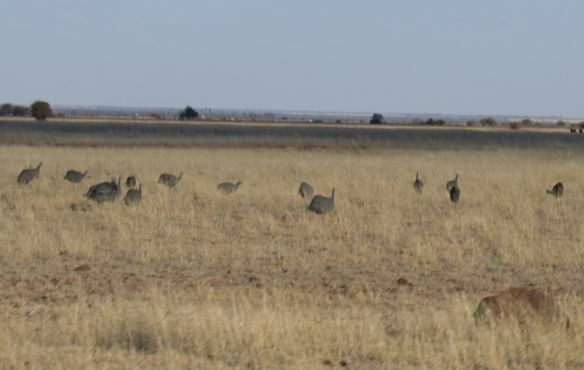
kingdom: Animalia
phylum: Chordata
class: Aves
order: Galliformes
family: Numididae
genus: Numida
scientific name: Numida meleagris
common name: Helmeted guineafowl
